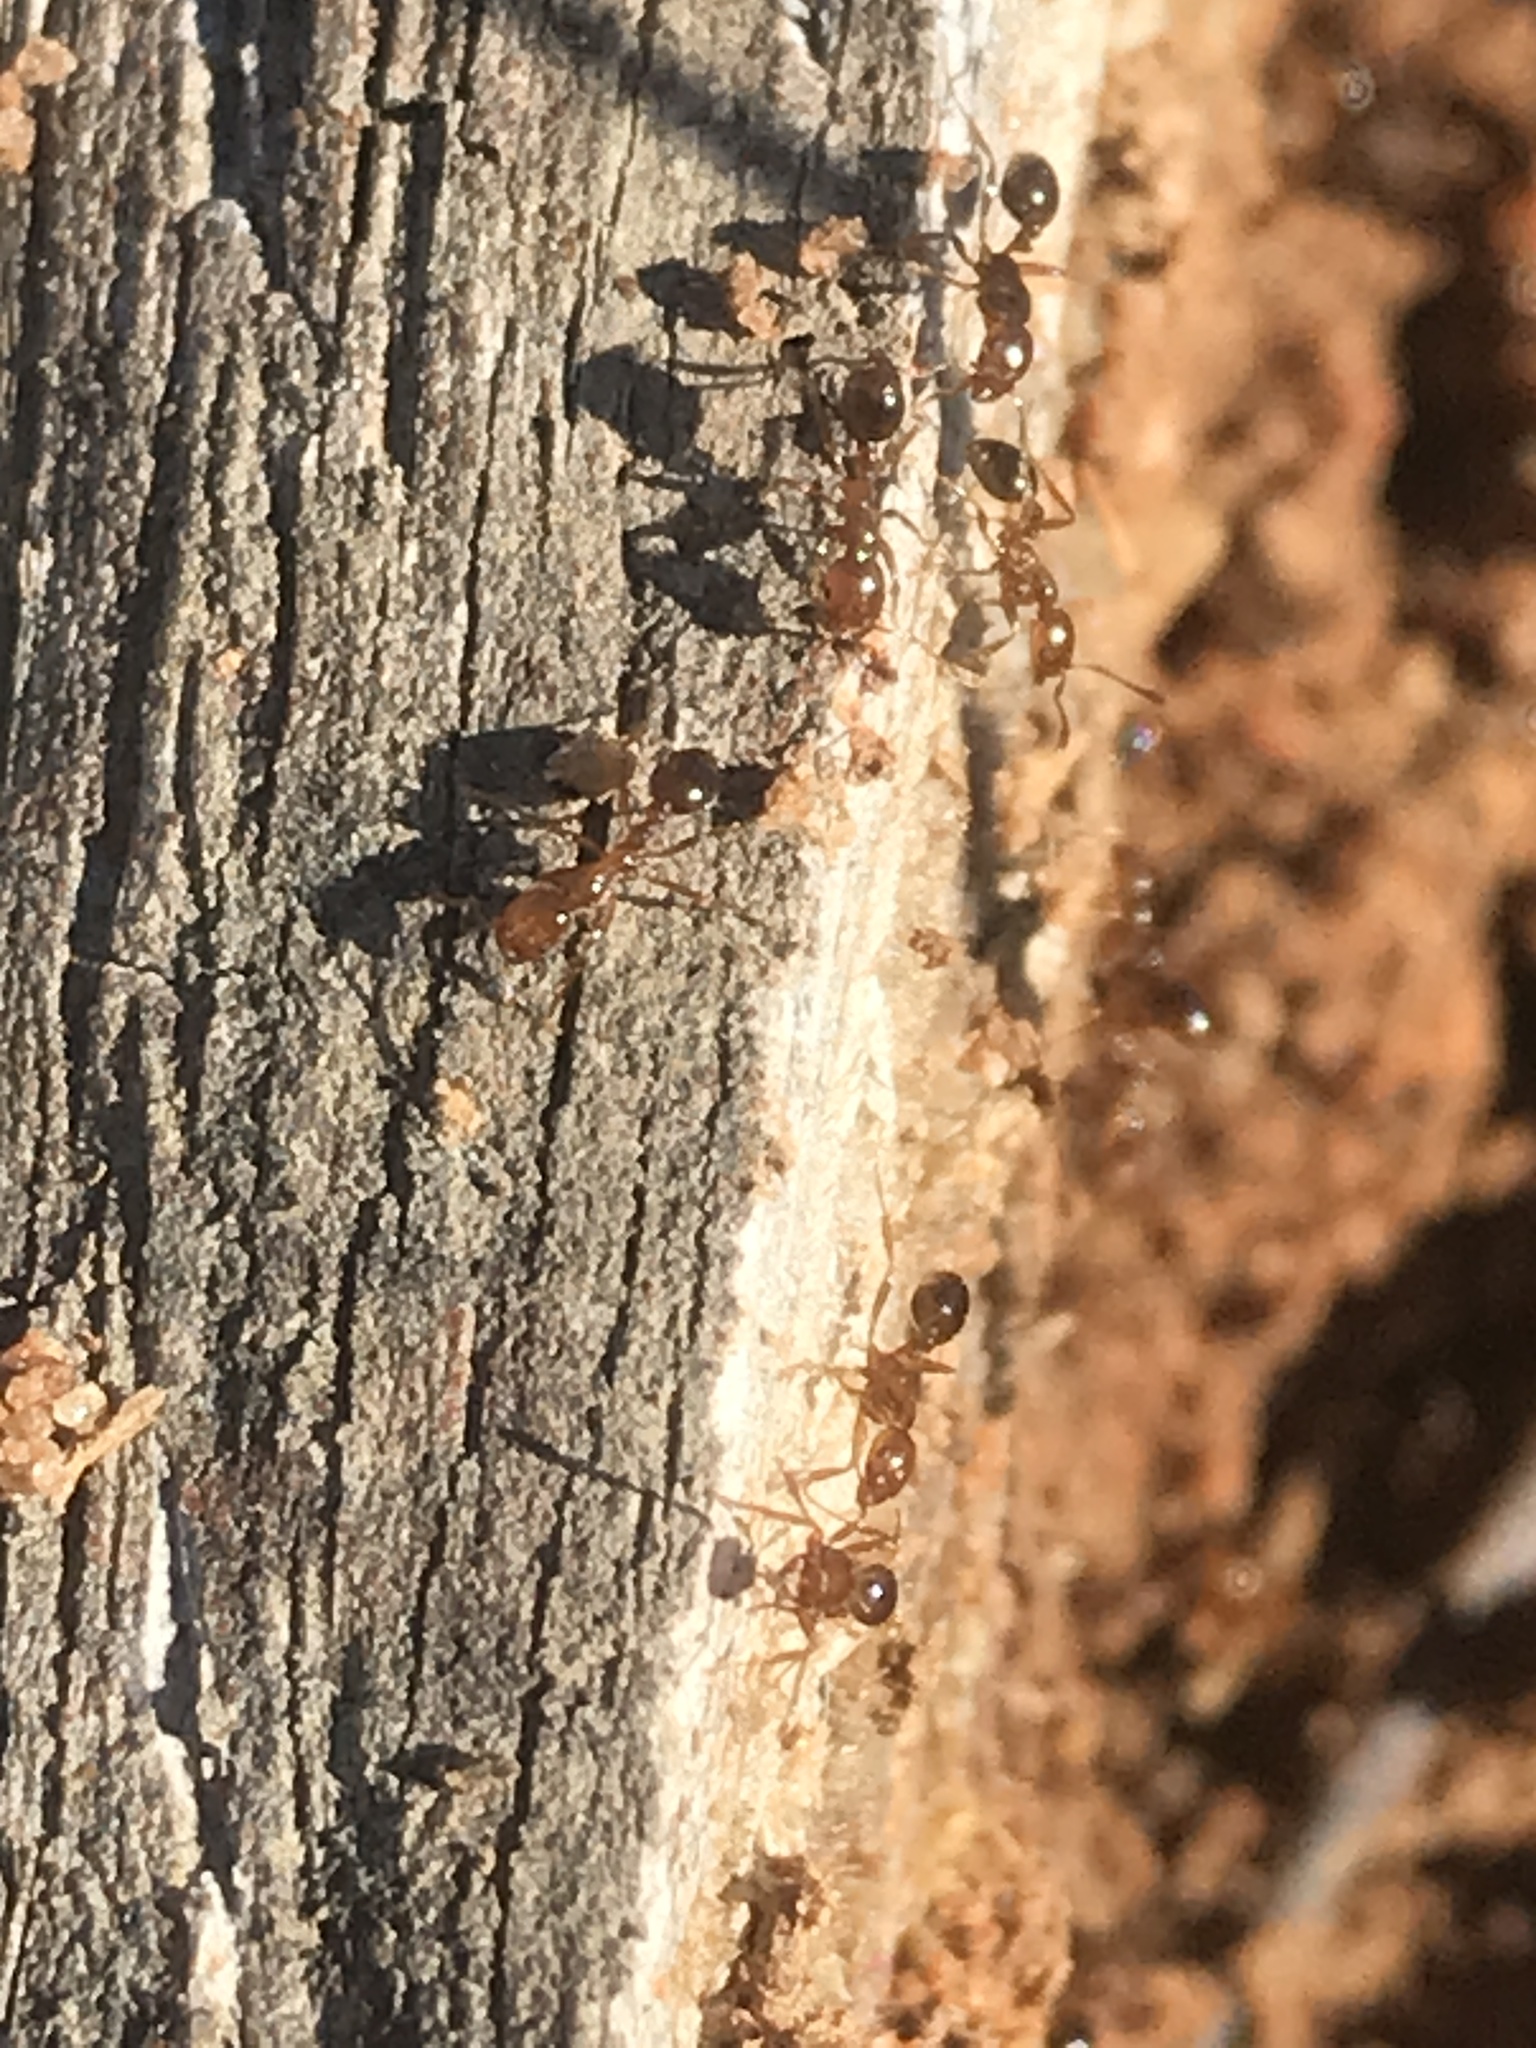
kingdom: Animalia
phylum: Arthropoda
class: Insecta
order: Hymenoptera
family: Formicidae
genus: Solenopsis
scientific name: Solenopsis invicta
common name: Red imported fire ant
